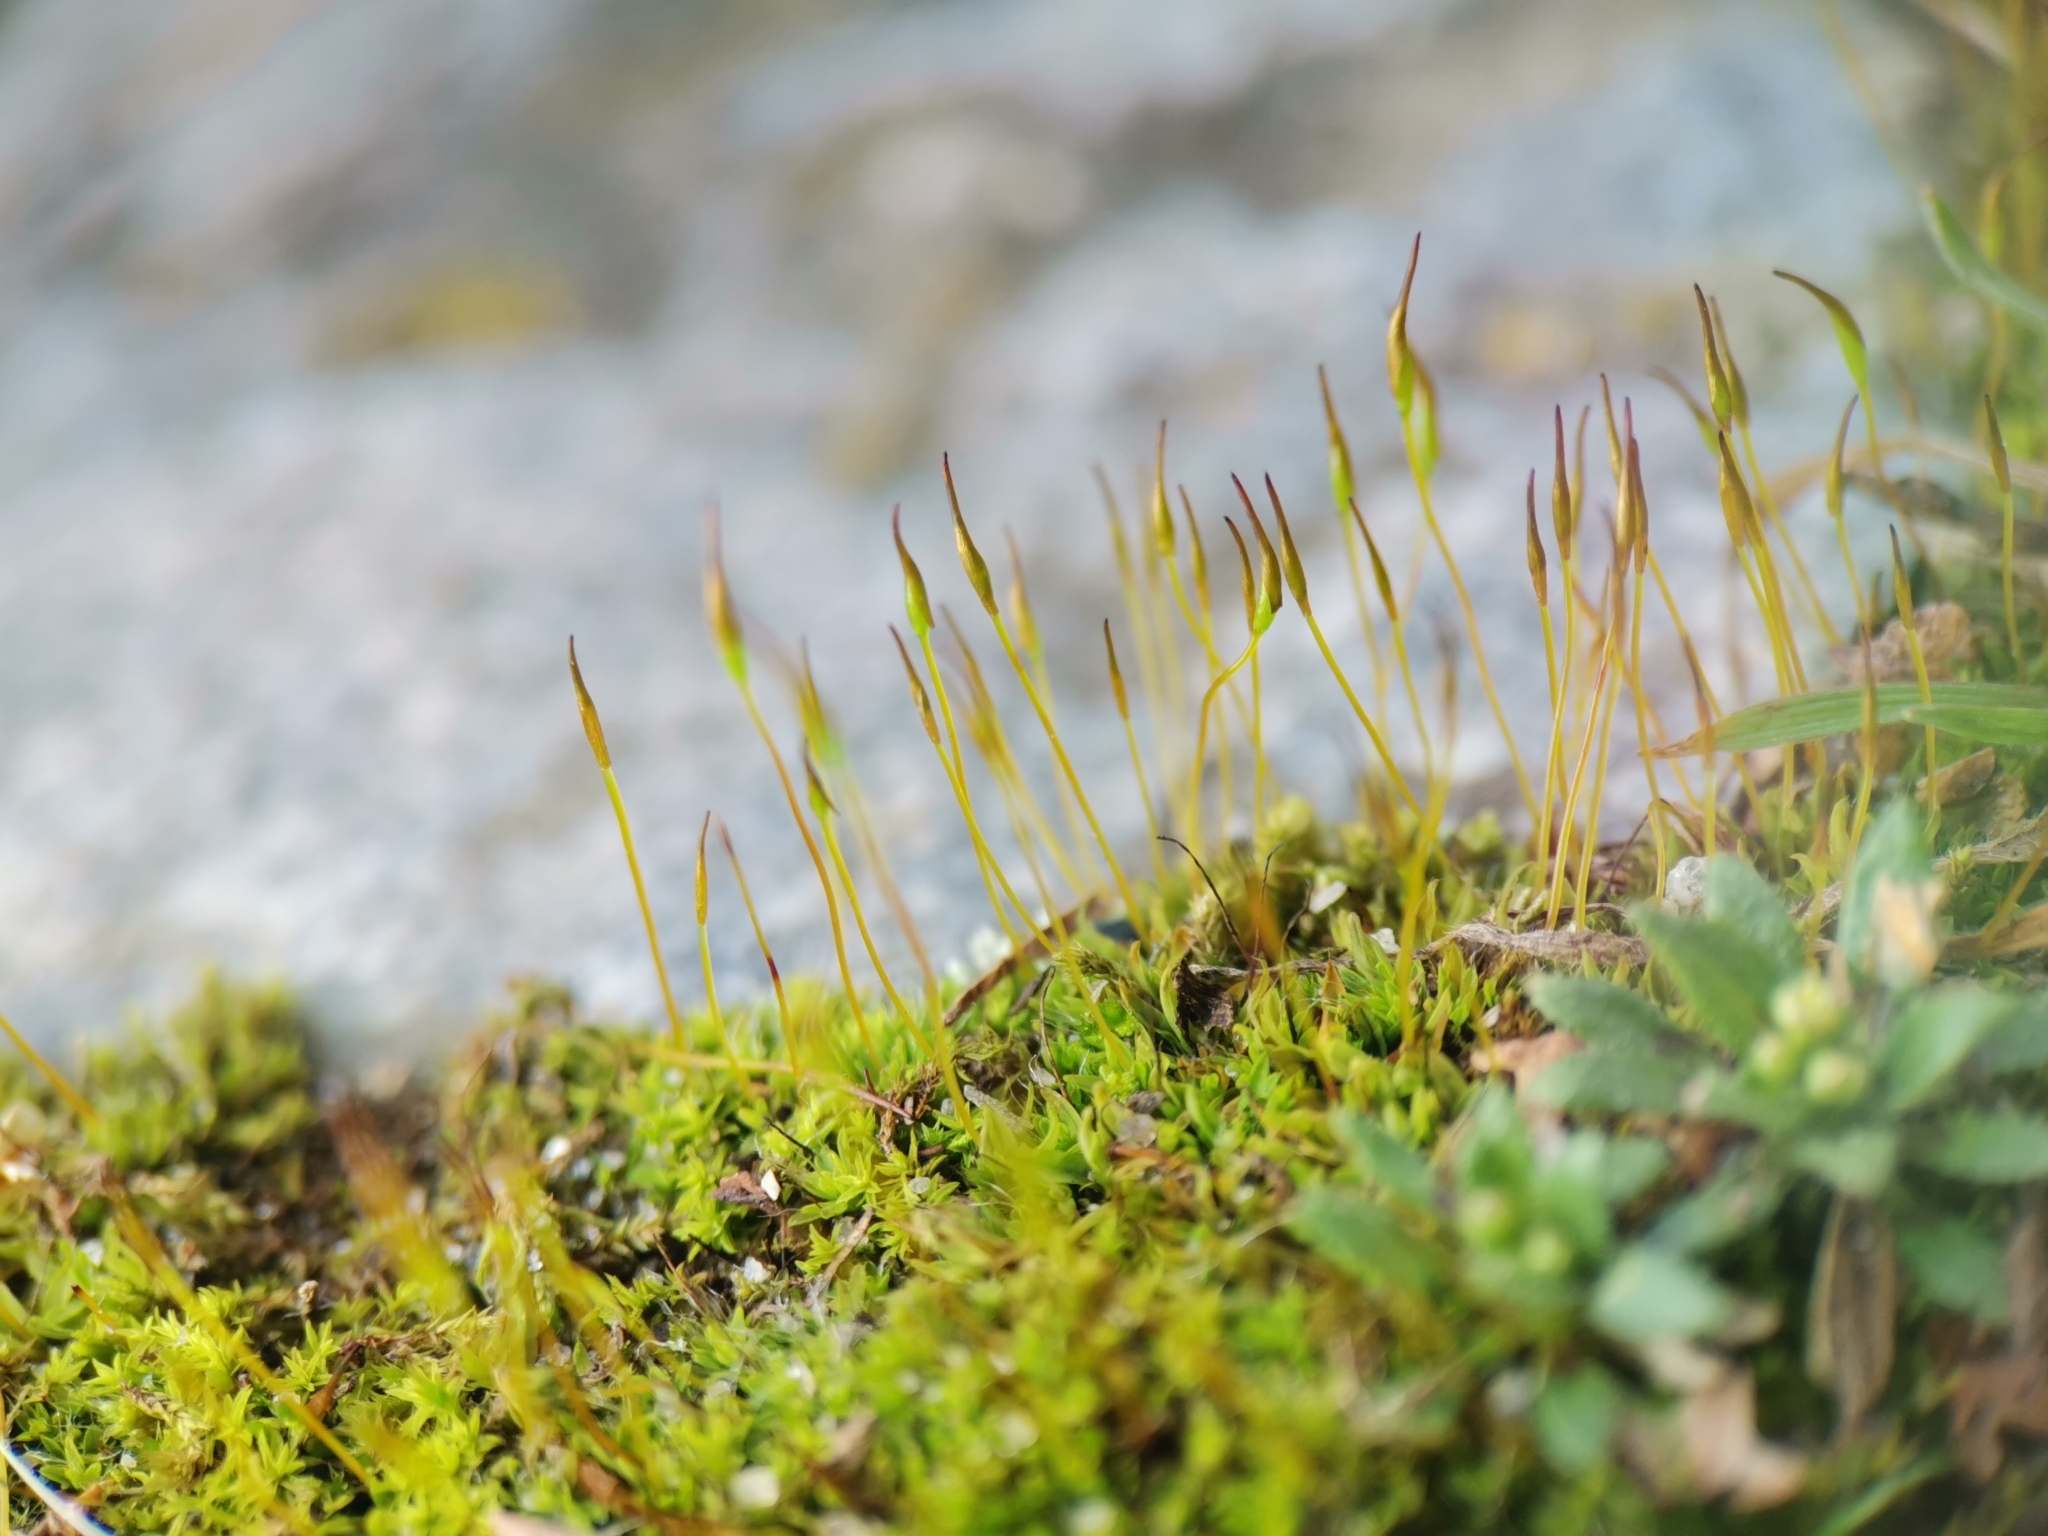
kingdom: Plantae
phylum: Bryophyta
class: Bryopsida
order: Pottiales
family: Pottiaceae
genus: Tortula
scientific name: Tortula muralis
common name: Wall screw-moss
